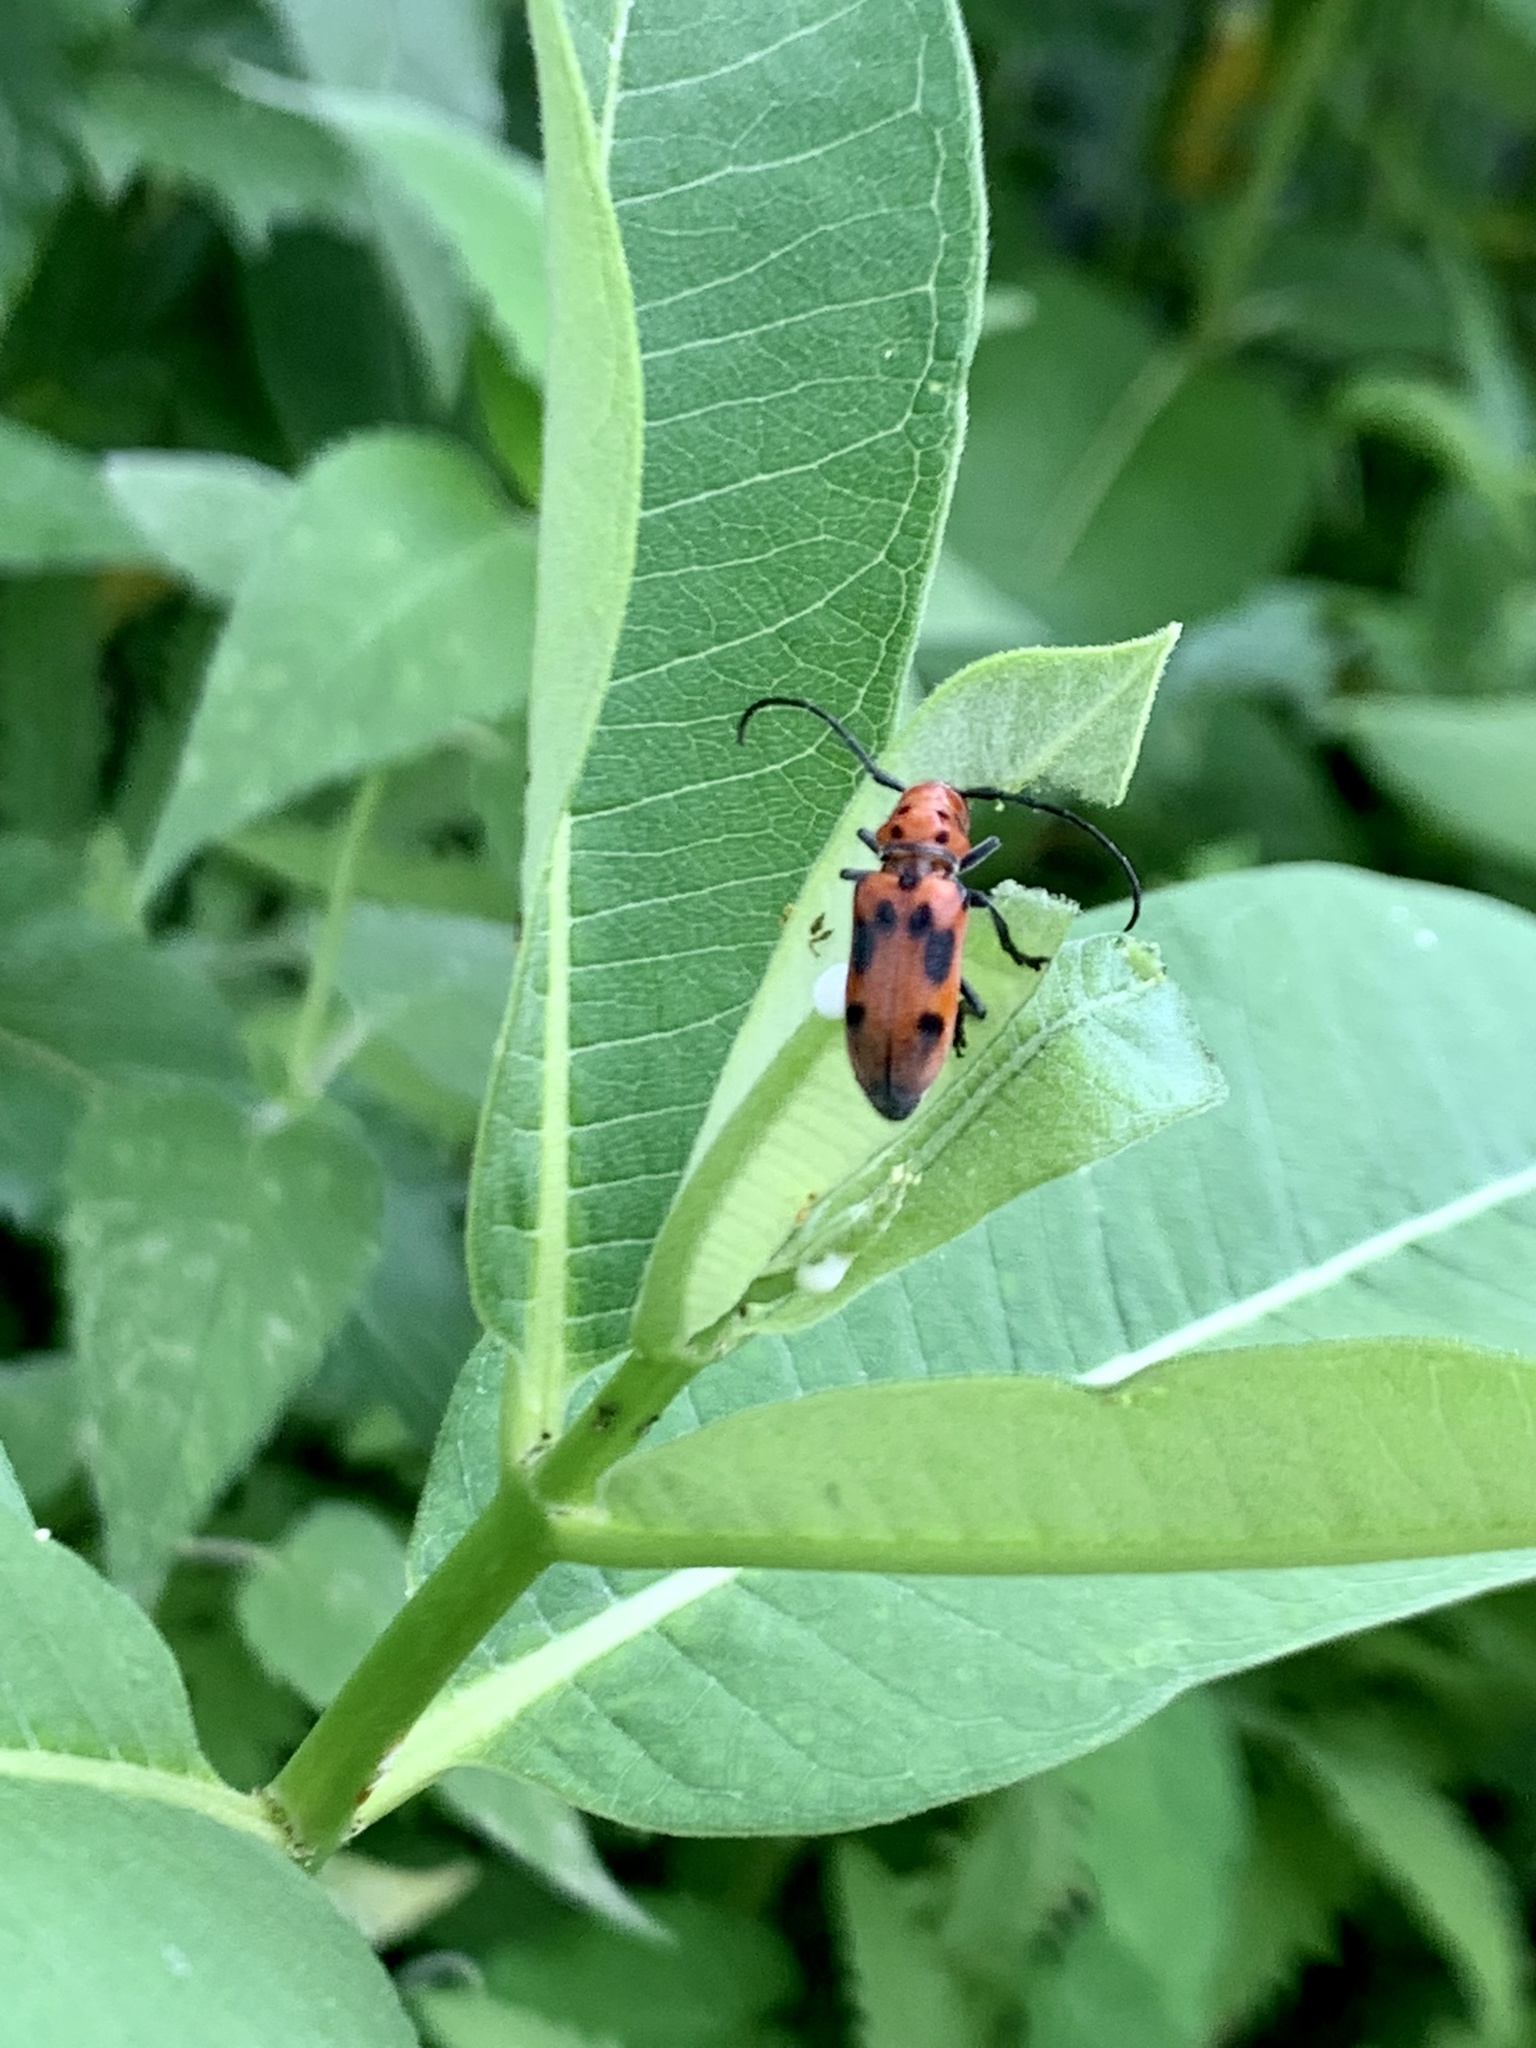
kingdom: Animalia
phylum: Arthropoda
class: Insecta
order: Coleoptera
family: Cerambycidae
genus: Tetraopes
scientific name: Tetraopes tetrophthalmus
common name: Red milkweed beetle
